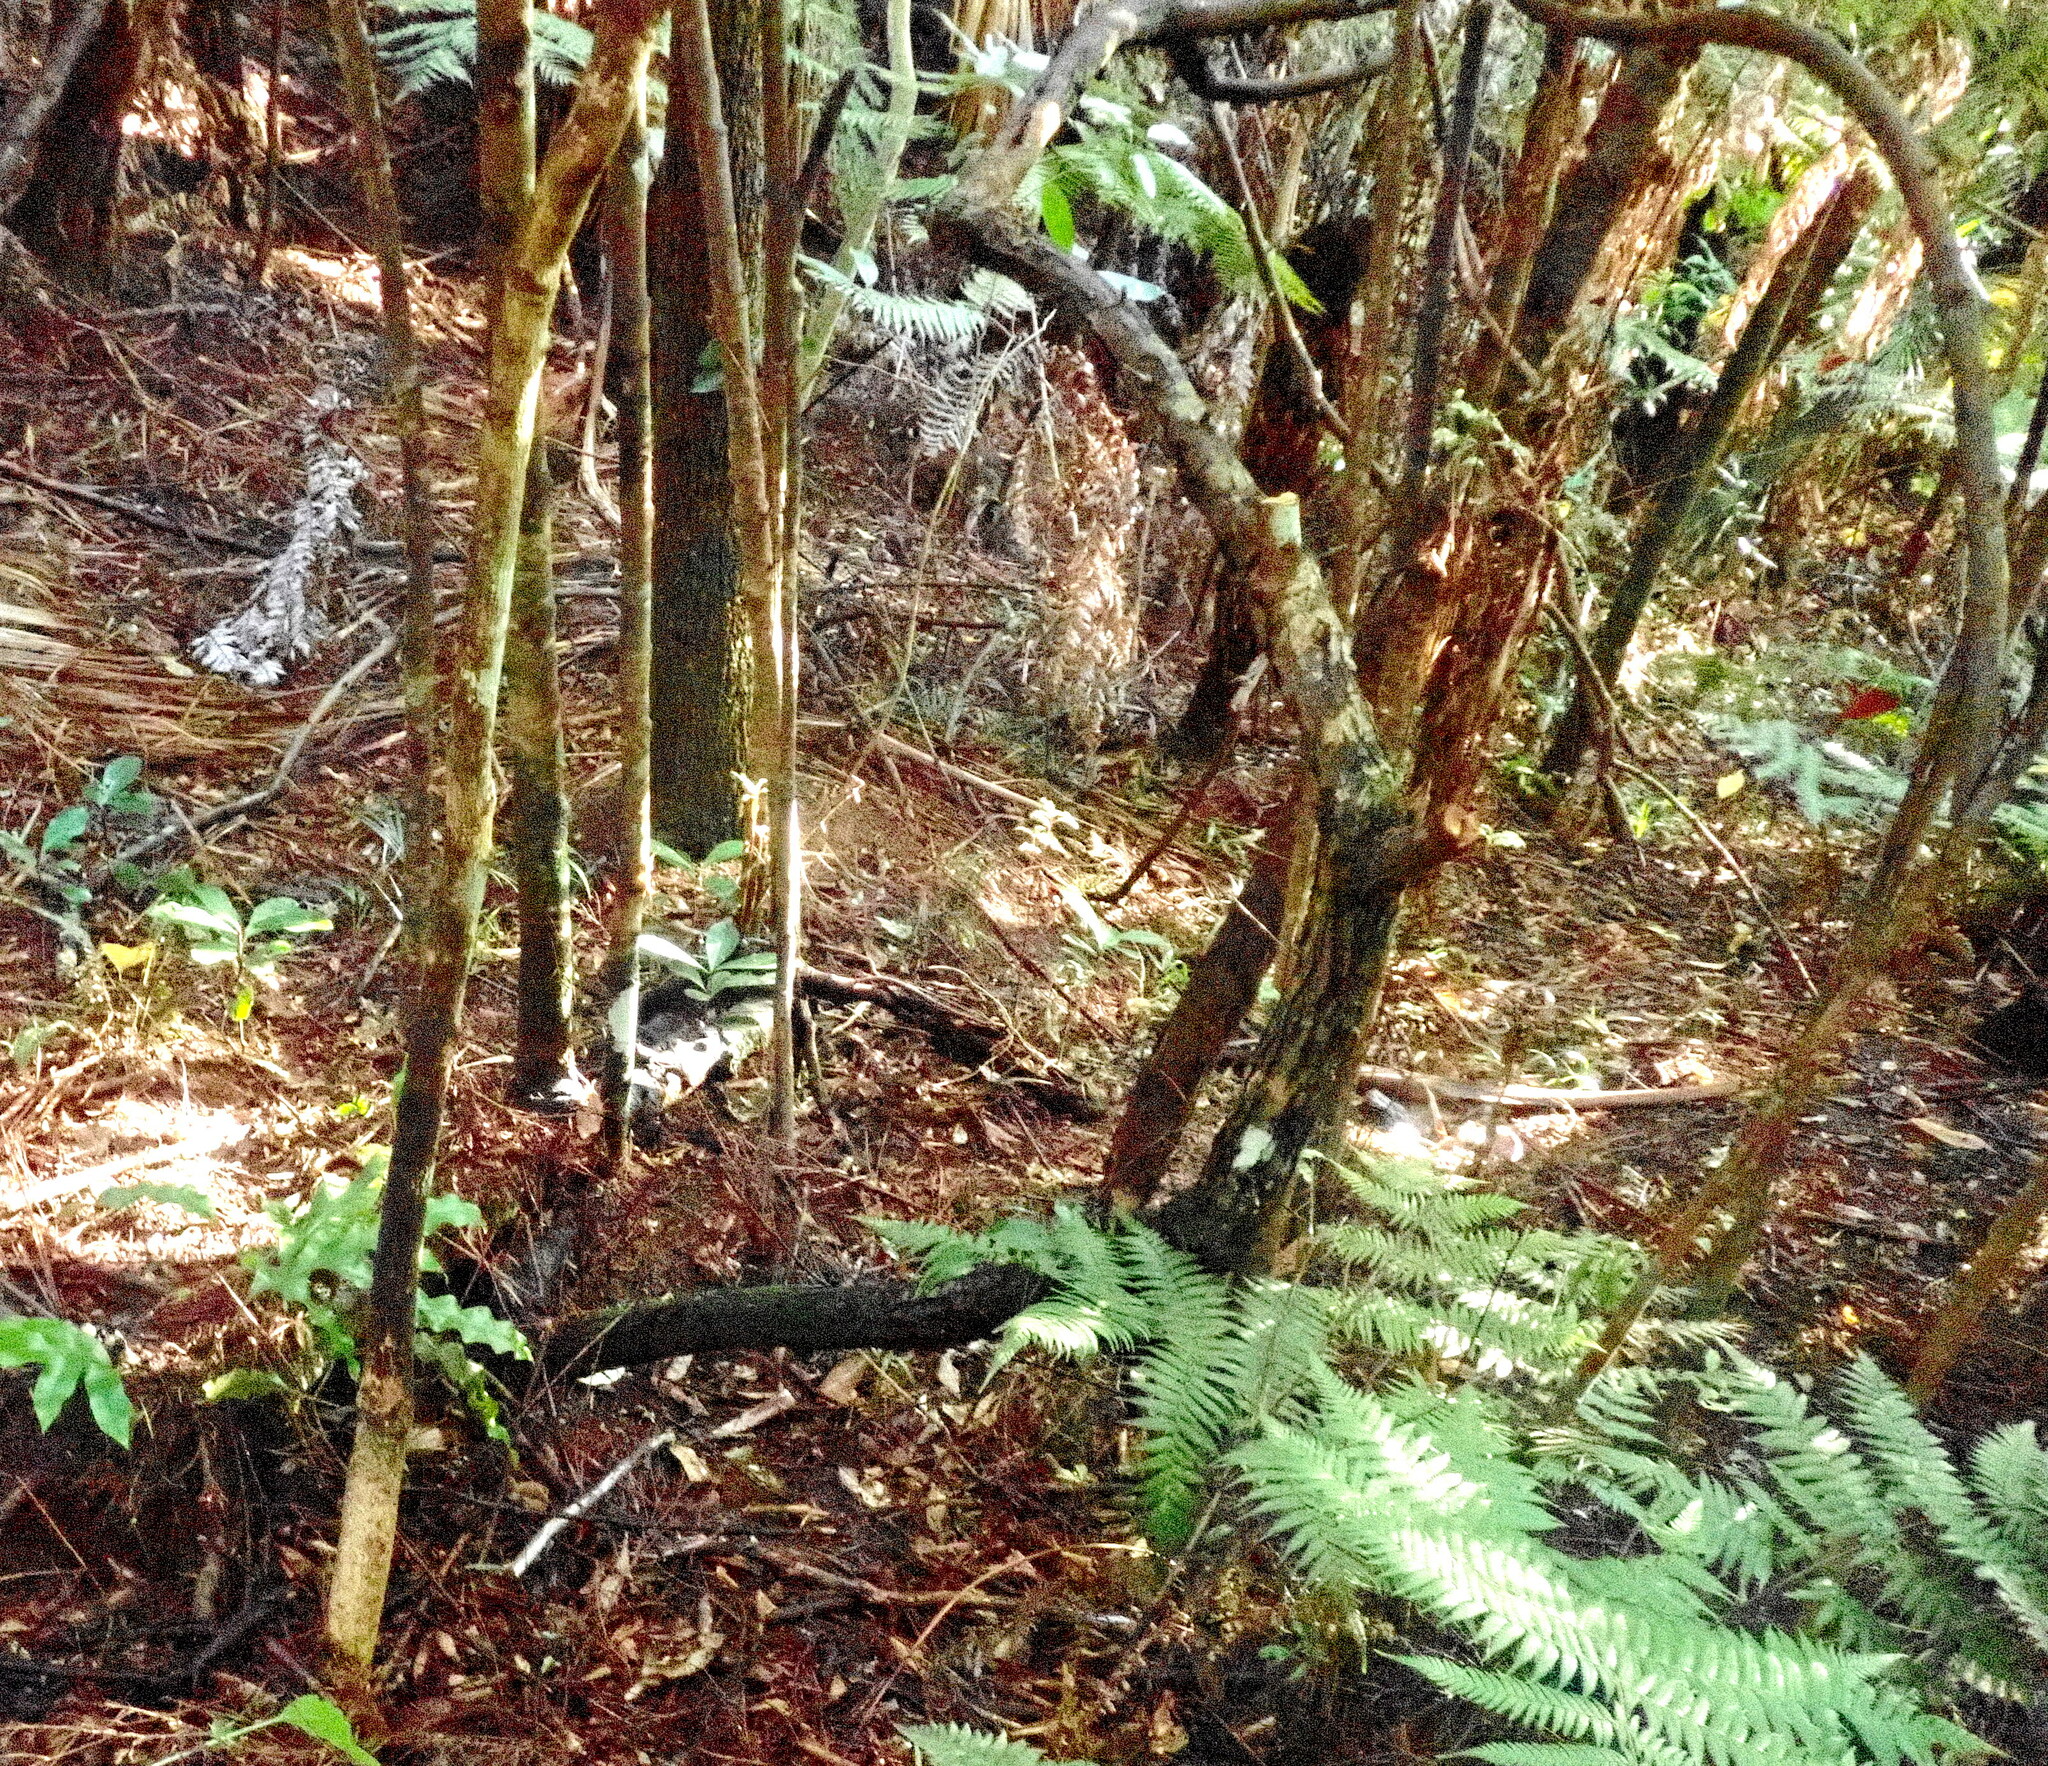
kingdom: Plantae
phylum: Tracheophyta
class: Polypodiopsida
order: Cyatheales
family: Cyatheaceae
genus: Alsophila
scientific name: Alsophila dealbata
